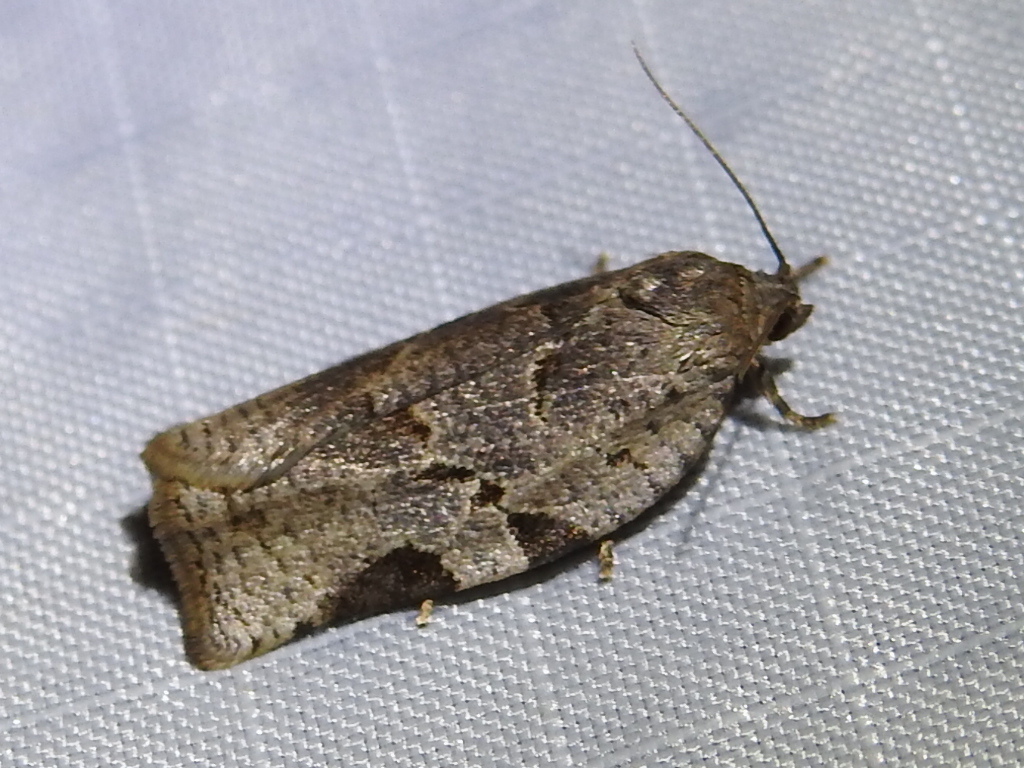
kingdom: Animalia
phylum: Arthropoda
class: Insecta
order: Lepidoptera
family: Tortricidae
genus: Archips
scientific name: Archips grisea
